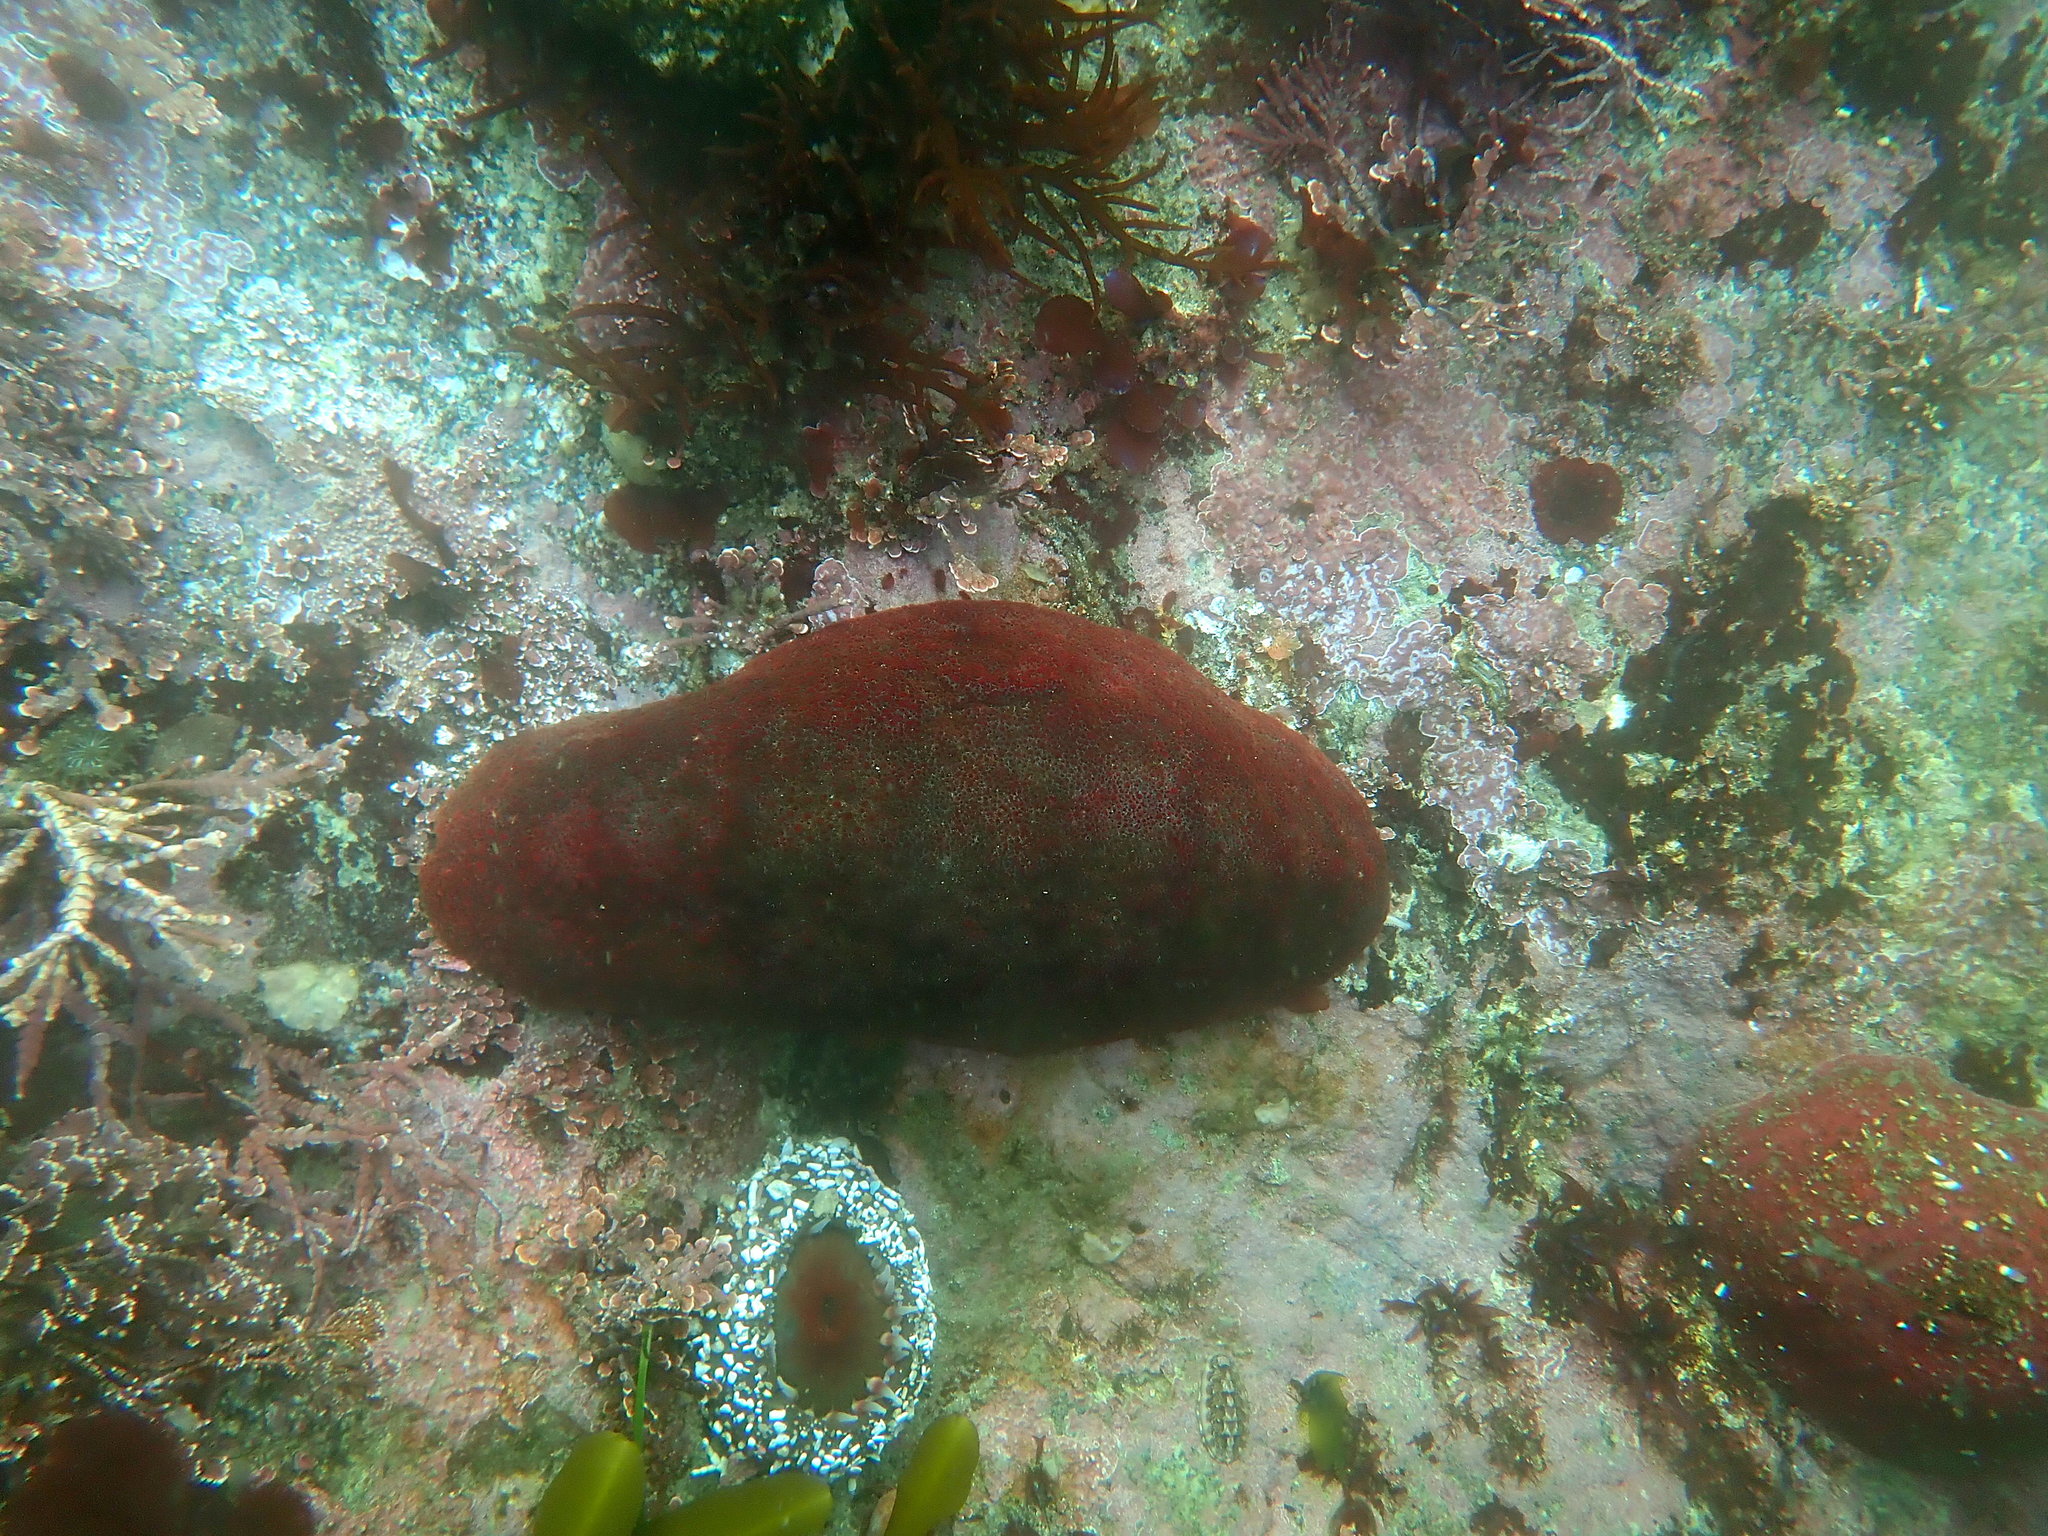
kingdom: Animalia
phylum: Mollusca
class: Polyplacophora
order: Chitonida
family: Acanthochitonidae
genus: Cryptochiton
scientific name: Cryptochiton stelleri
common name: Giant pacific chiton
